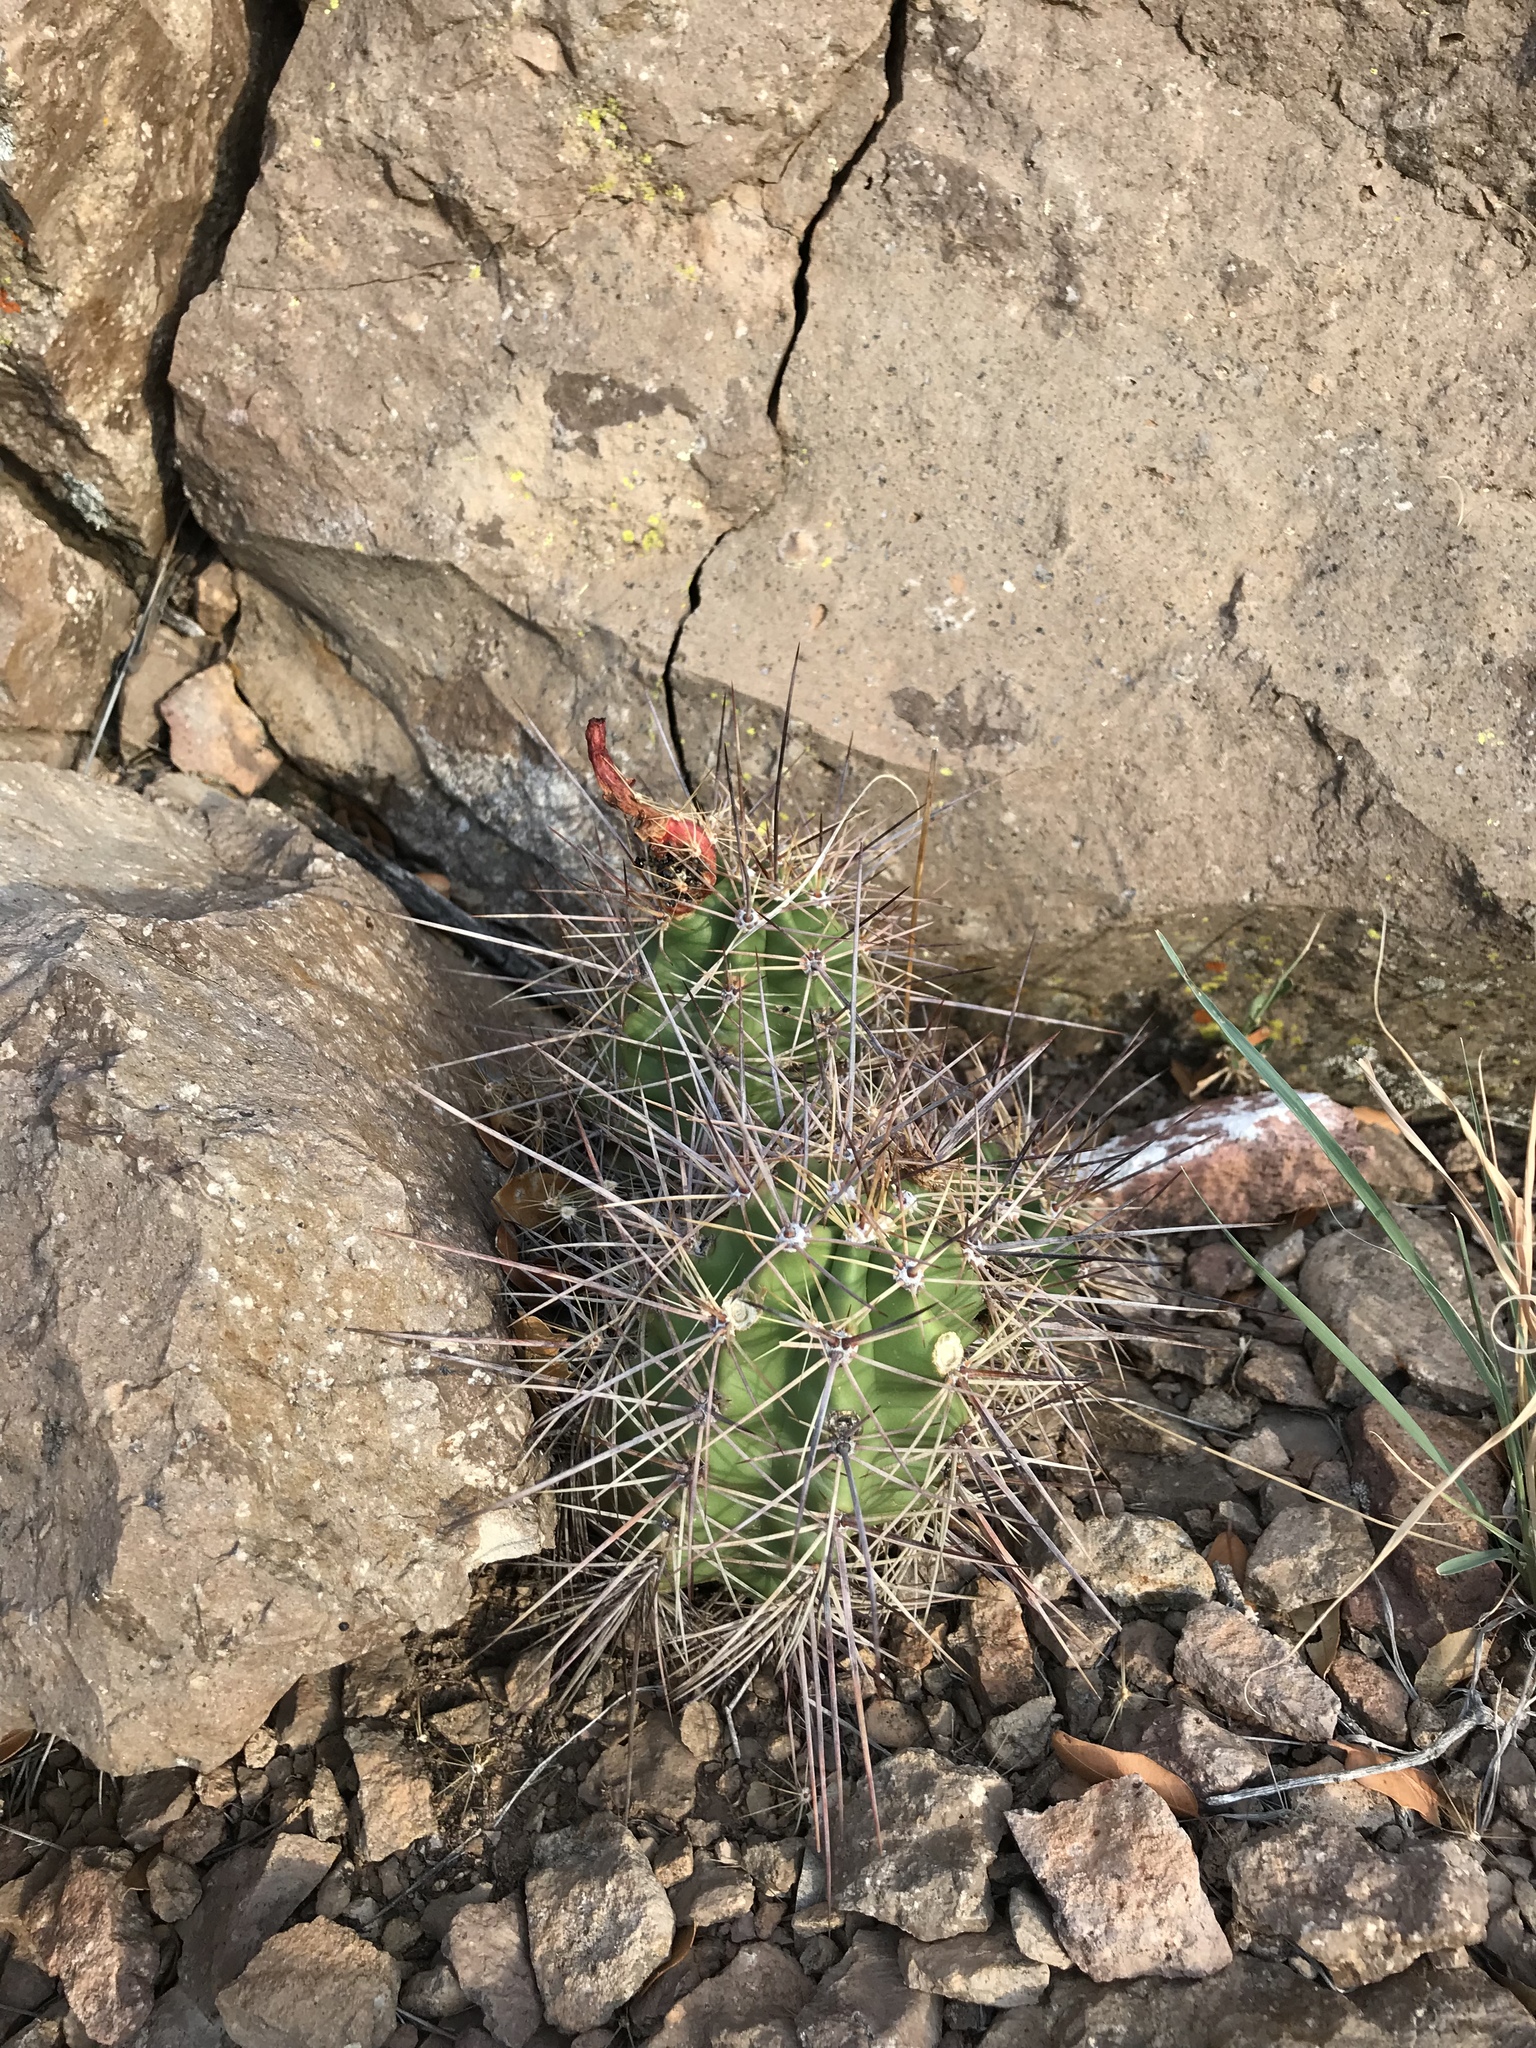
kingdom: Plantae
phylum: Tracheophyta
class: Magnoliopsida
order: Caryophyllales
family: Cactaceae
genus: Echinocereus
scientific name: Echinocereus coccineus
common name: Scarlet hedgehog cactus
